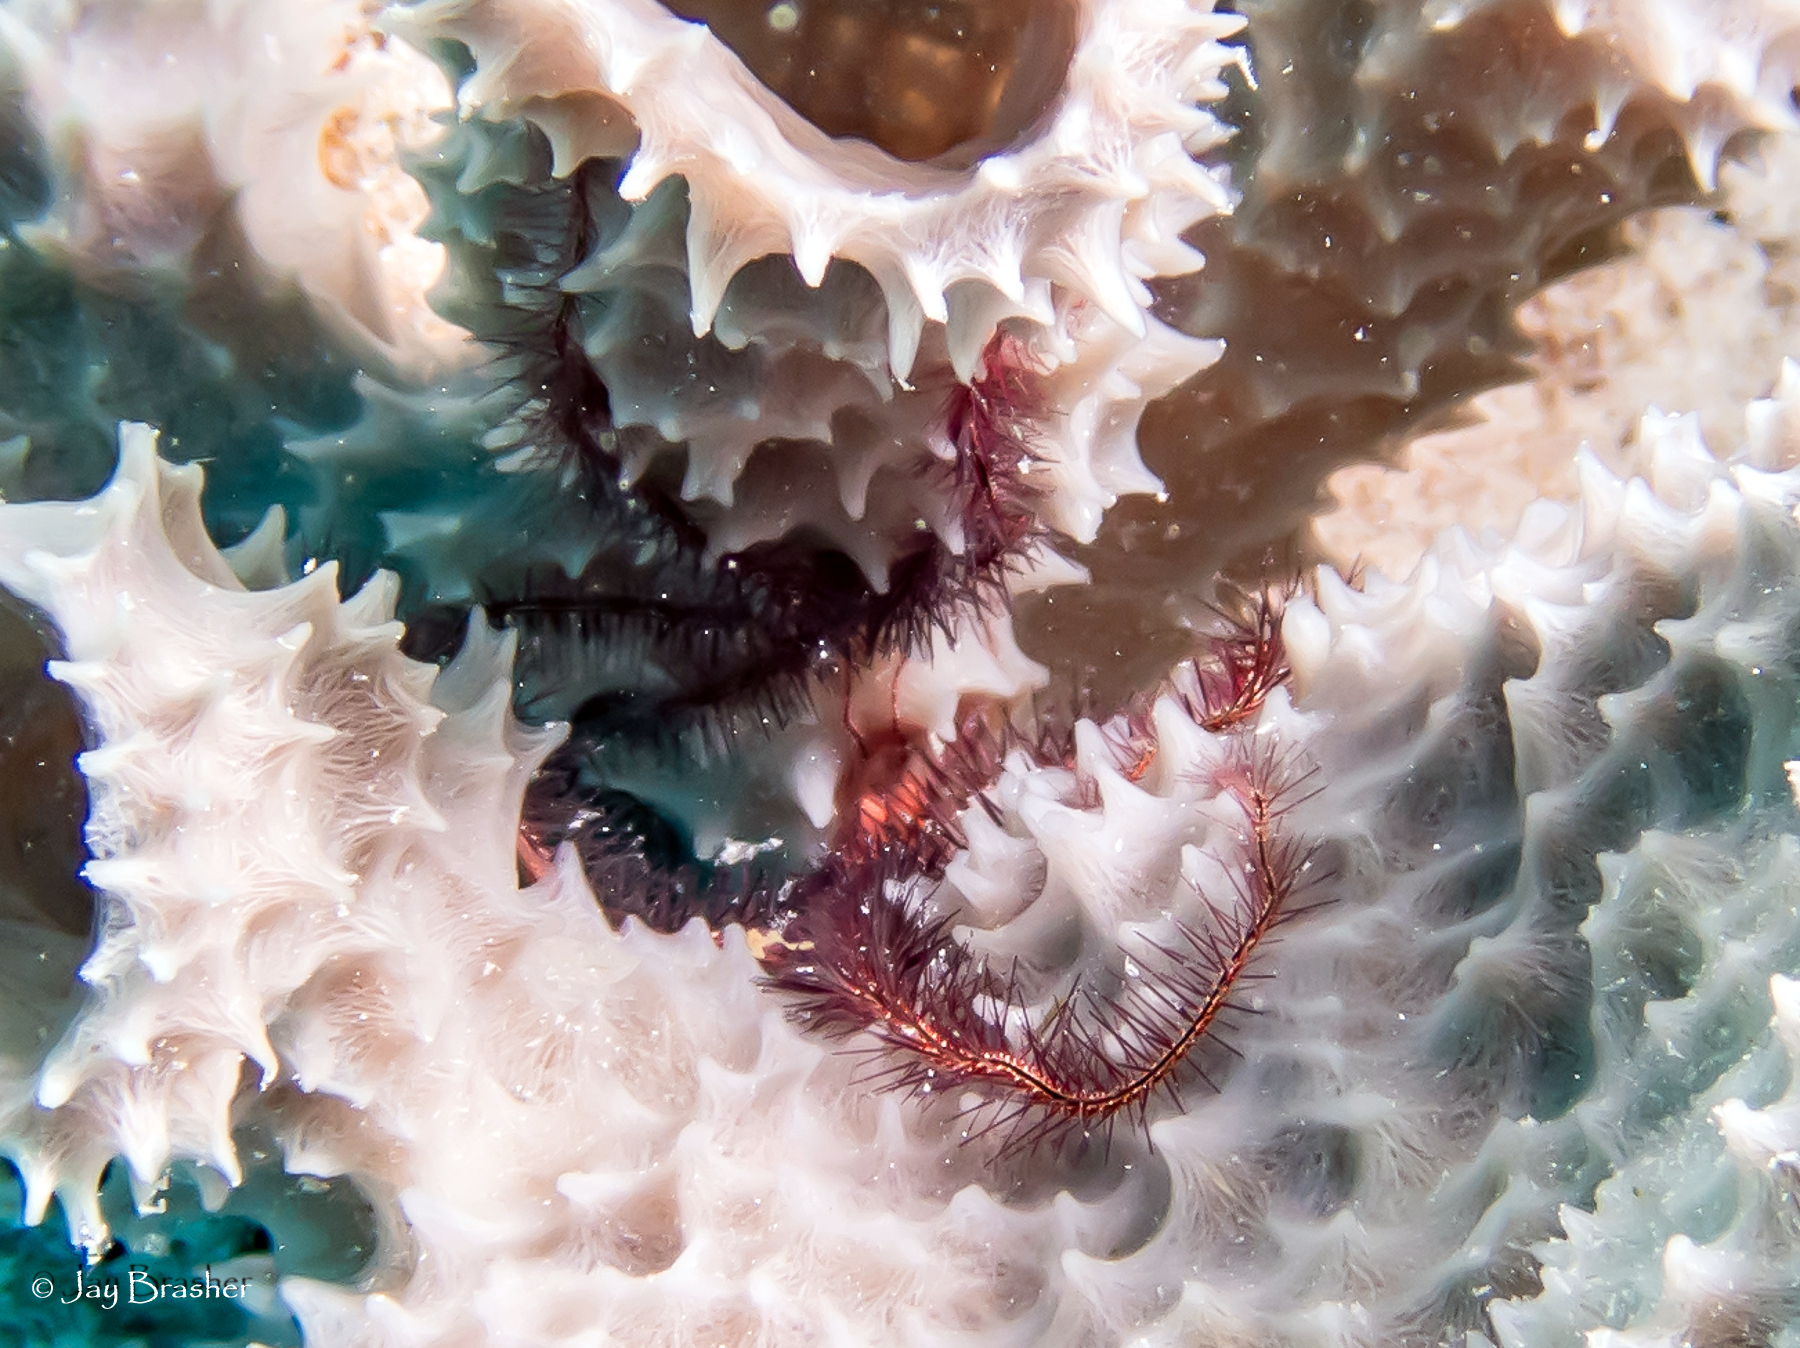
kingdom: Animalia
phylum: Echinodermata
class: Ophiuroidea
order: Amphilepidida
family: Ophiotrichidae
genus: Ophiothrix
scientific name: Ophiothrix suensonii
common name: Sponge brittle star
